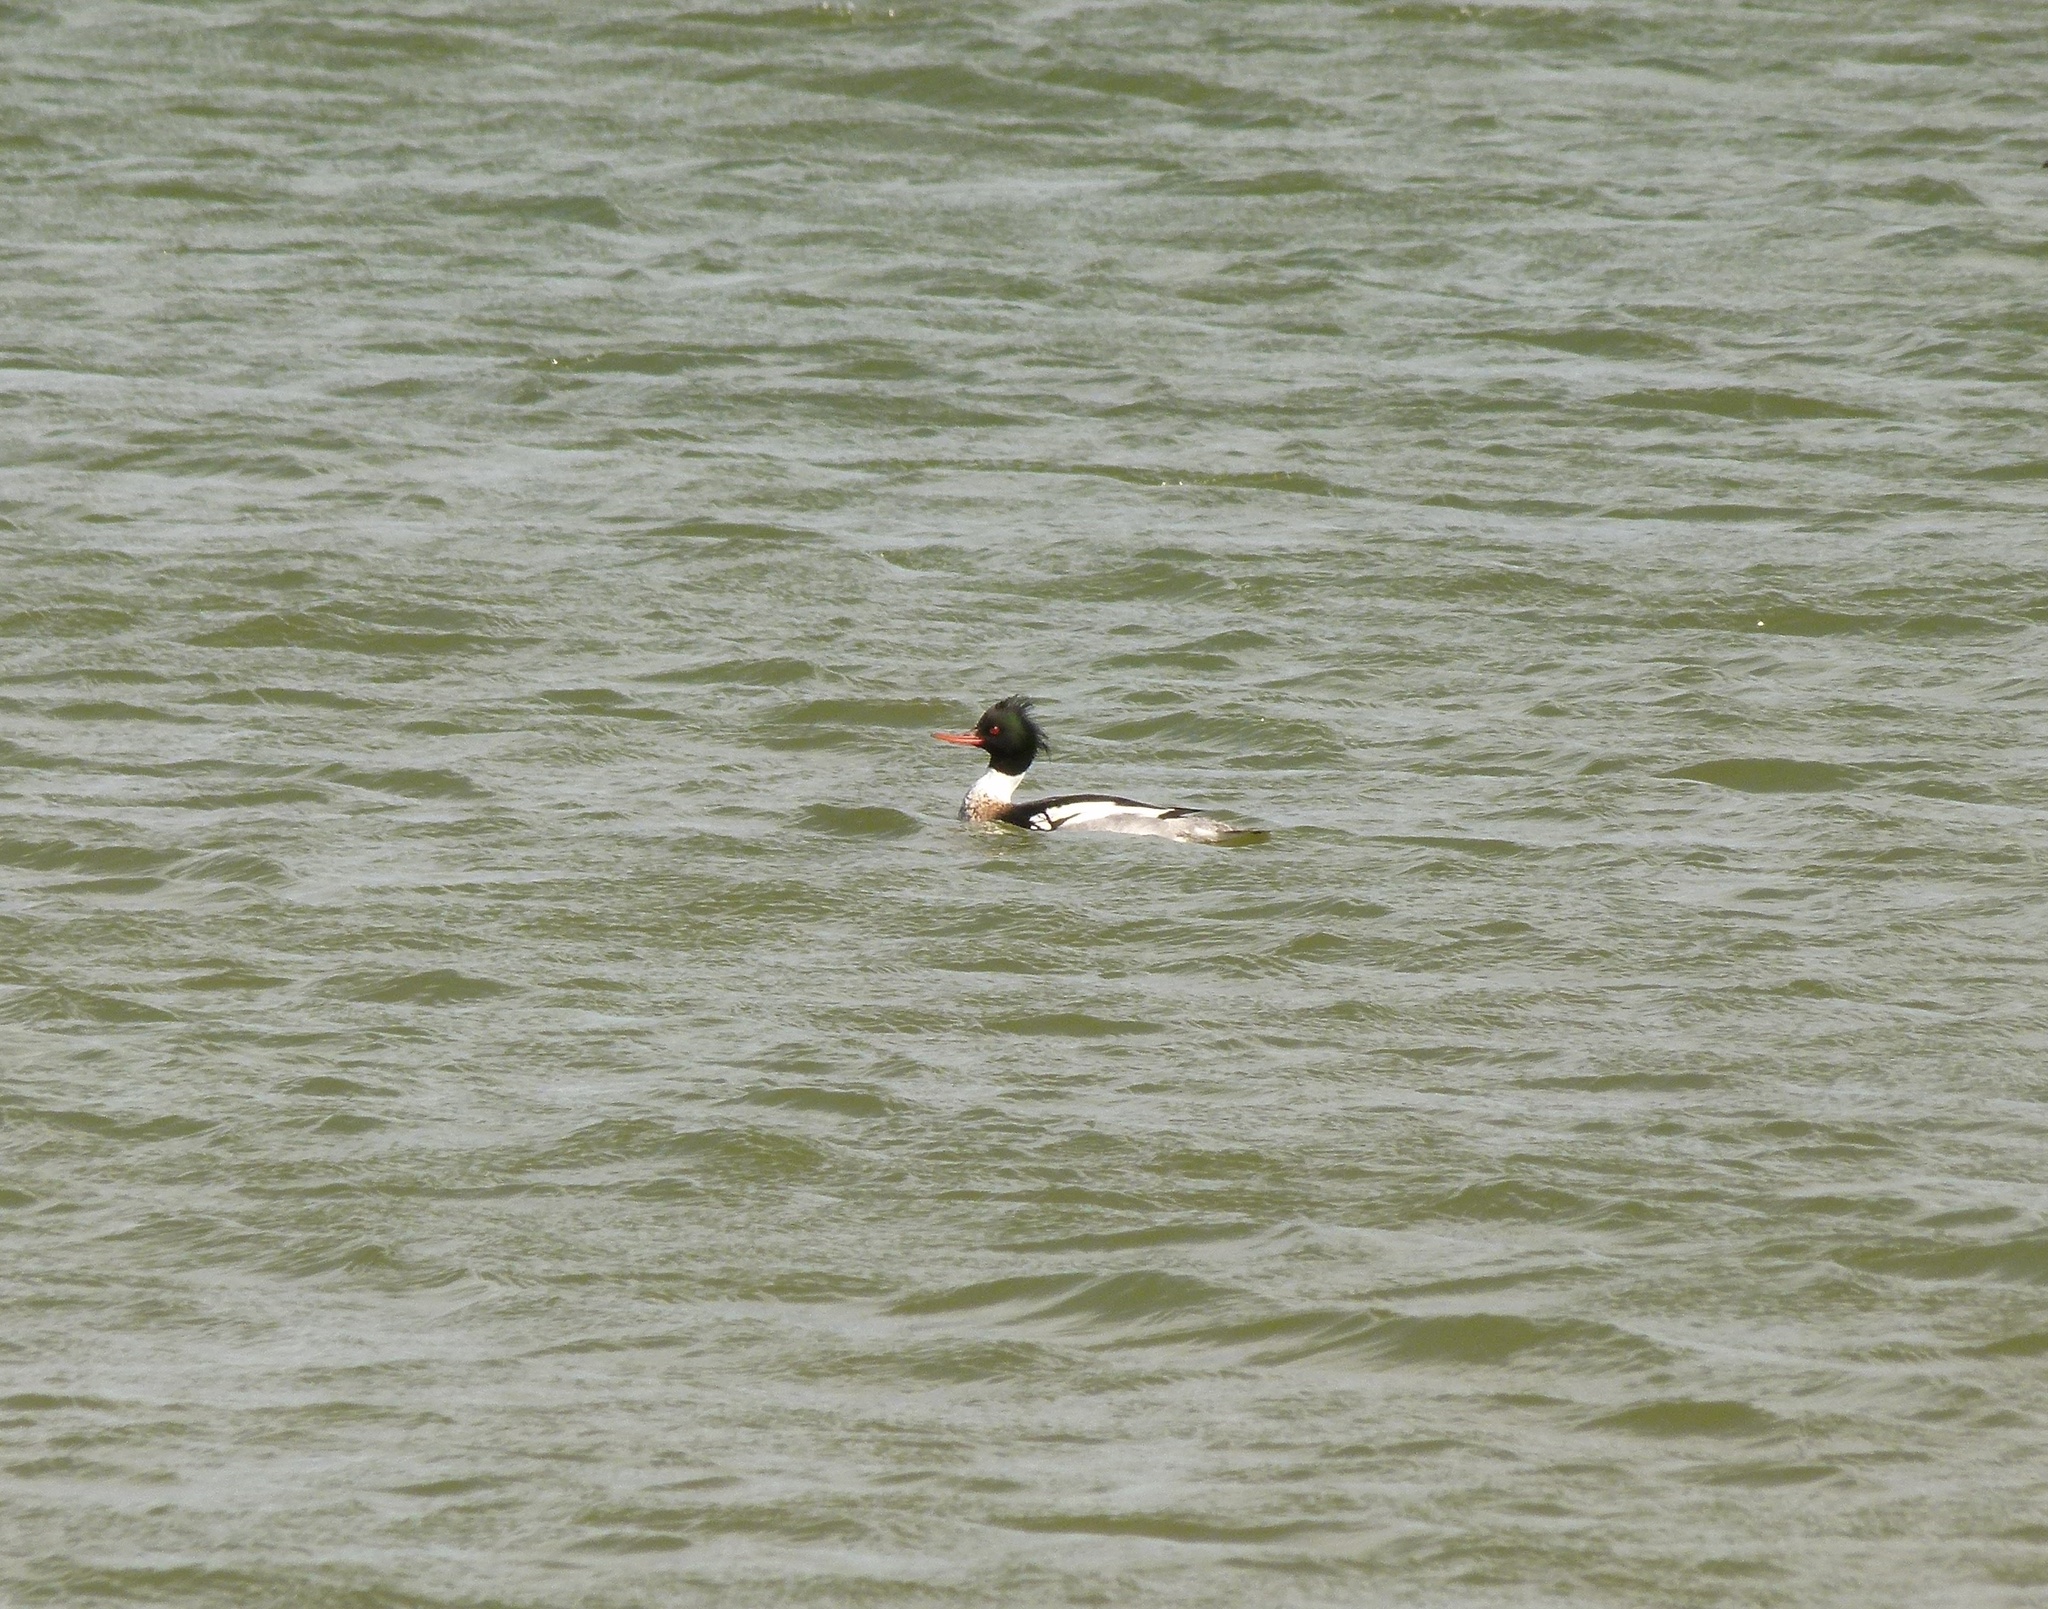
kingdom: Animalia
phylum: Chordata
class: Aves
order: Anseriformes
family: Anatidae
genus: Mergus
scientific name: Mergus serrator
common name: Red-breasted merganser
